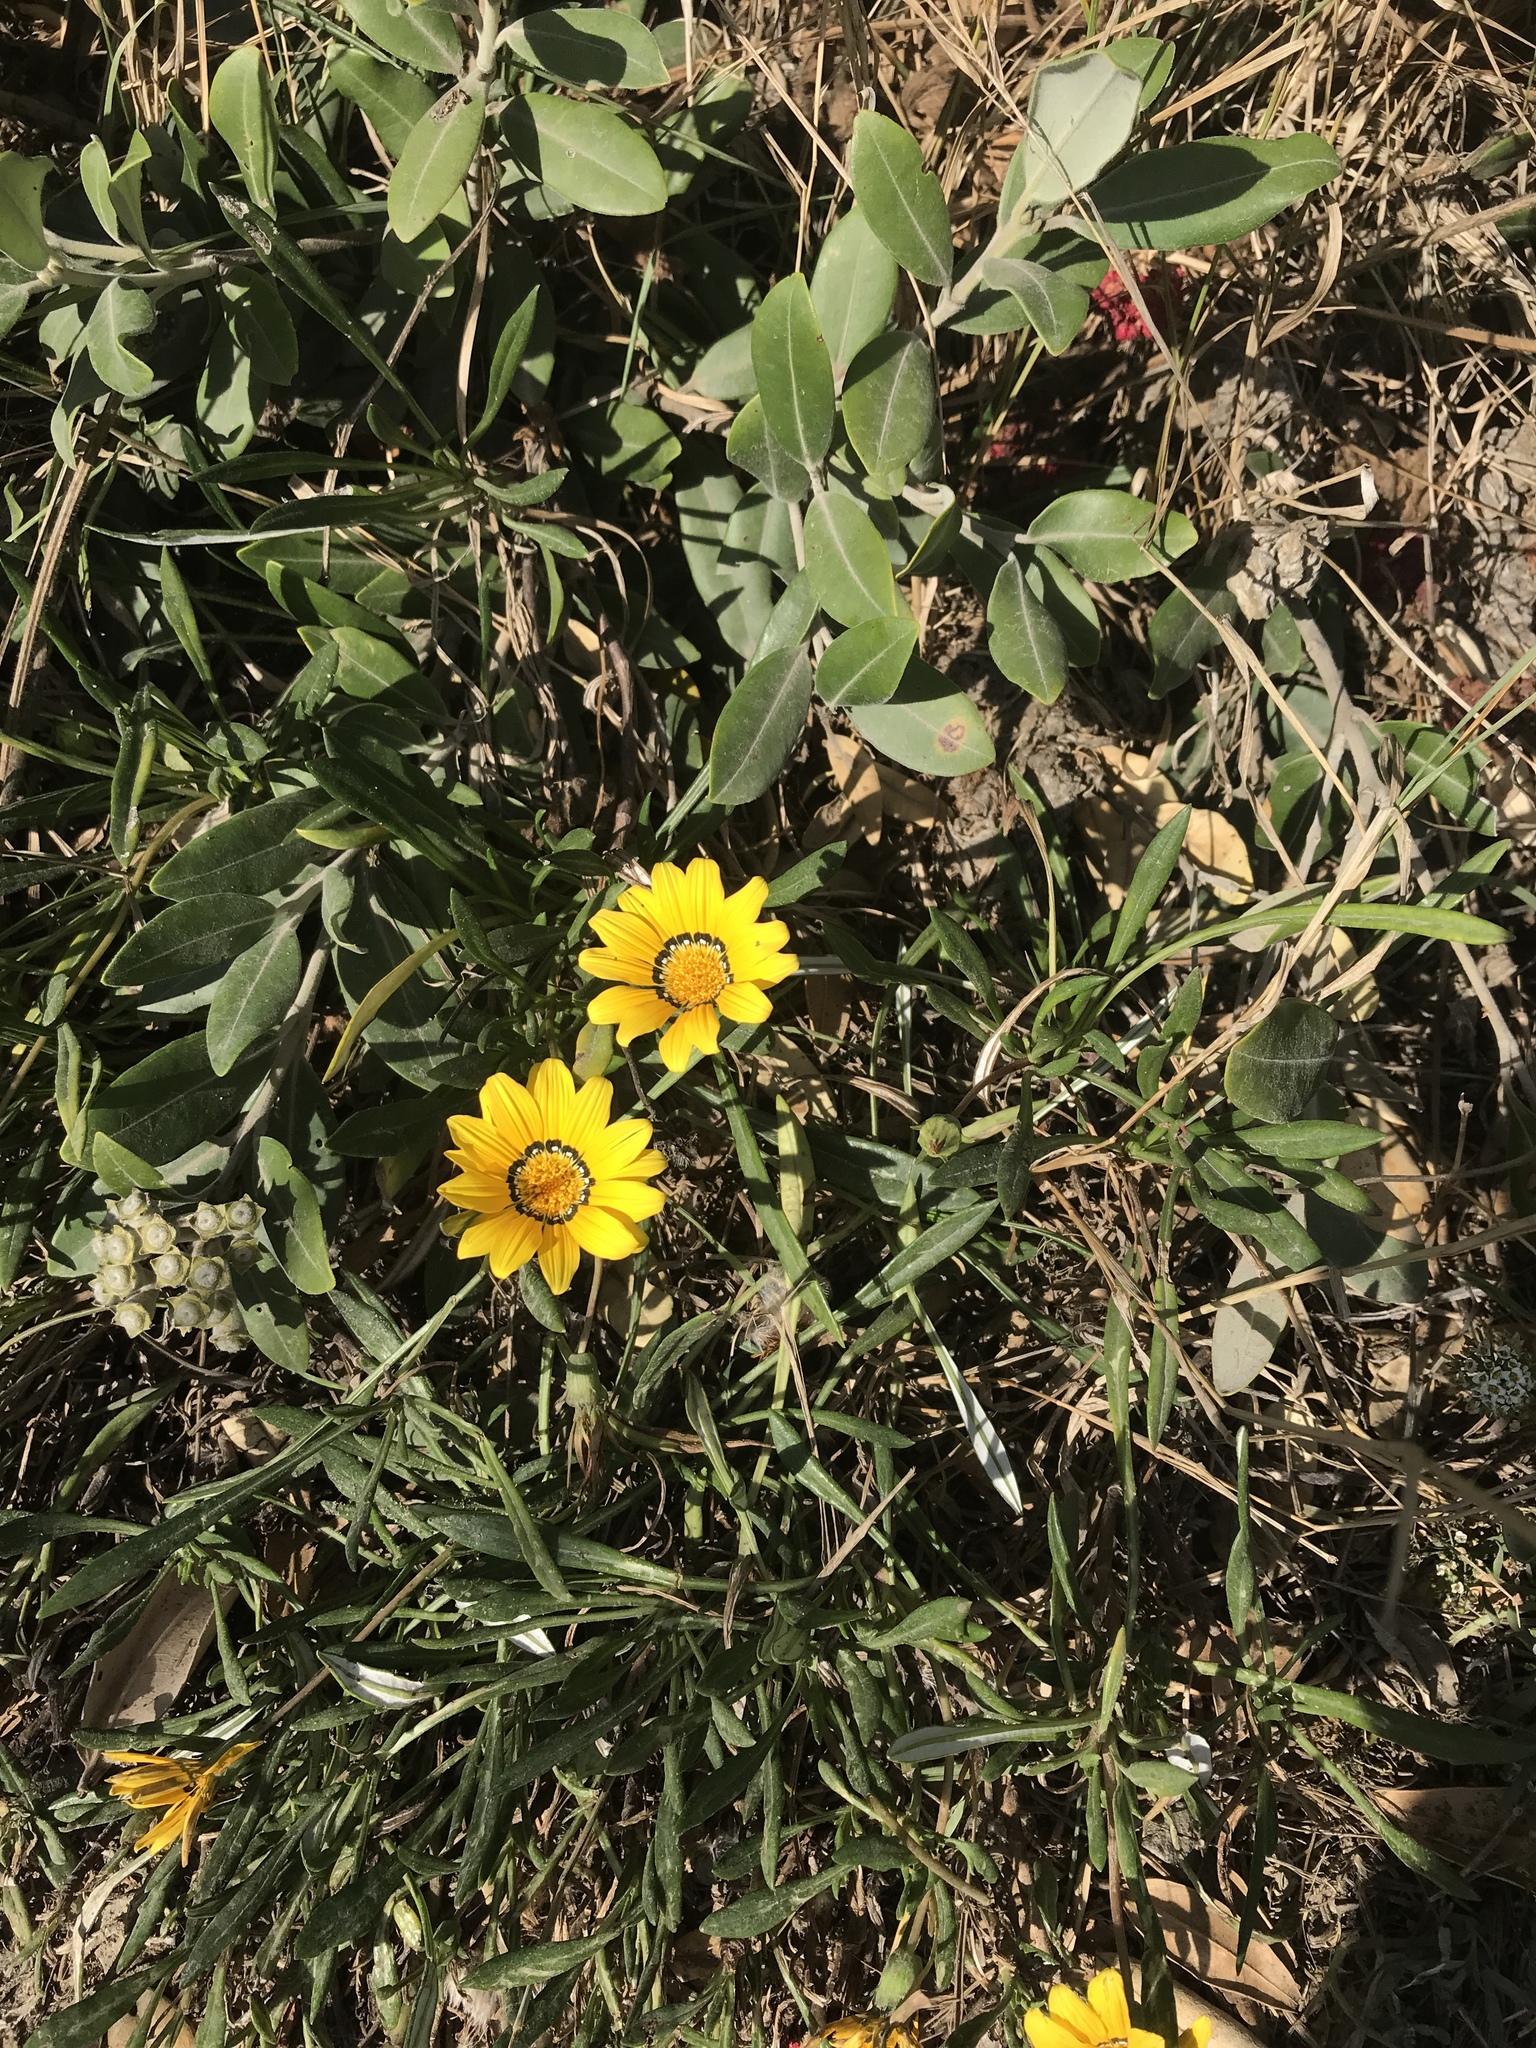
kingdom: Plantae
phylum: Tracheophyta
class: Magnoliopsida
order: Asterales
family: Asteraceae
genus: Gazania
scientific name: Gazania rigens
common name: Treasureflower
